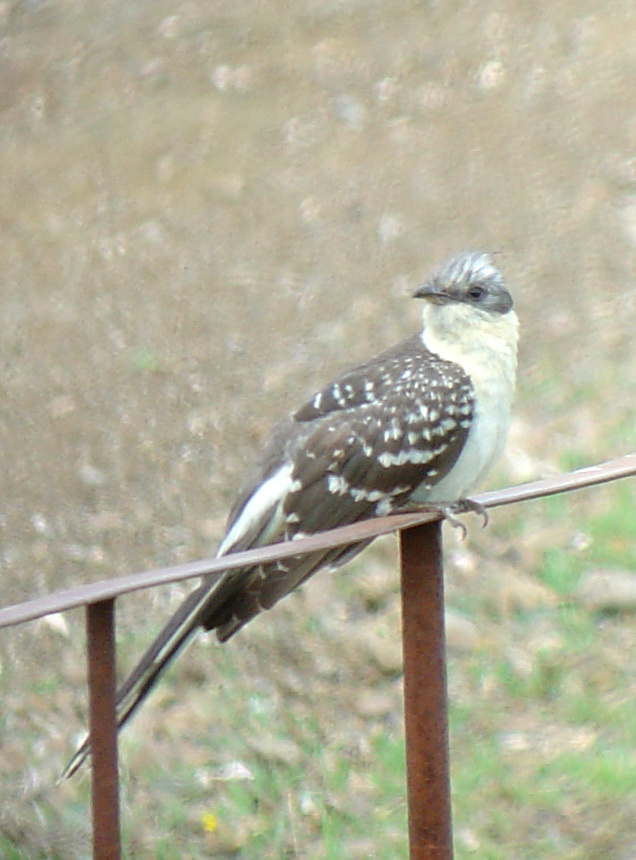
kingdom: Animalia
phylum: Chordata
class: Aves
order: Cuculiformes
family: Cuculidae
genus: Clamator
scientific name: Clamator glandarius
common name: Great spotted cuckoo
